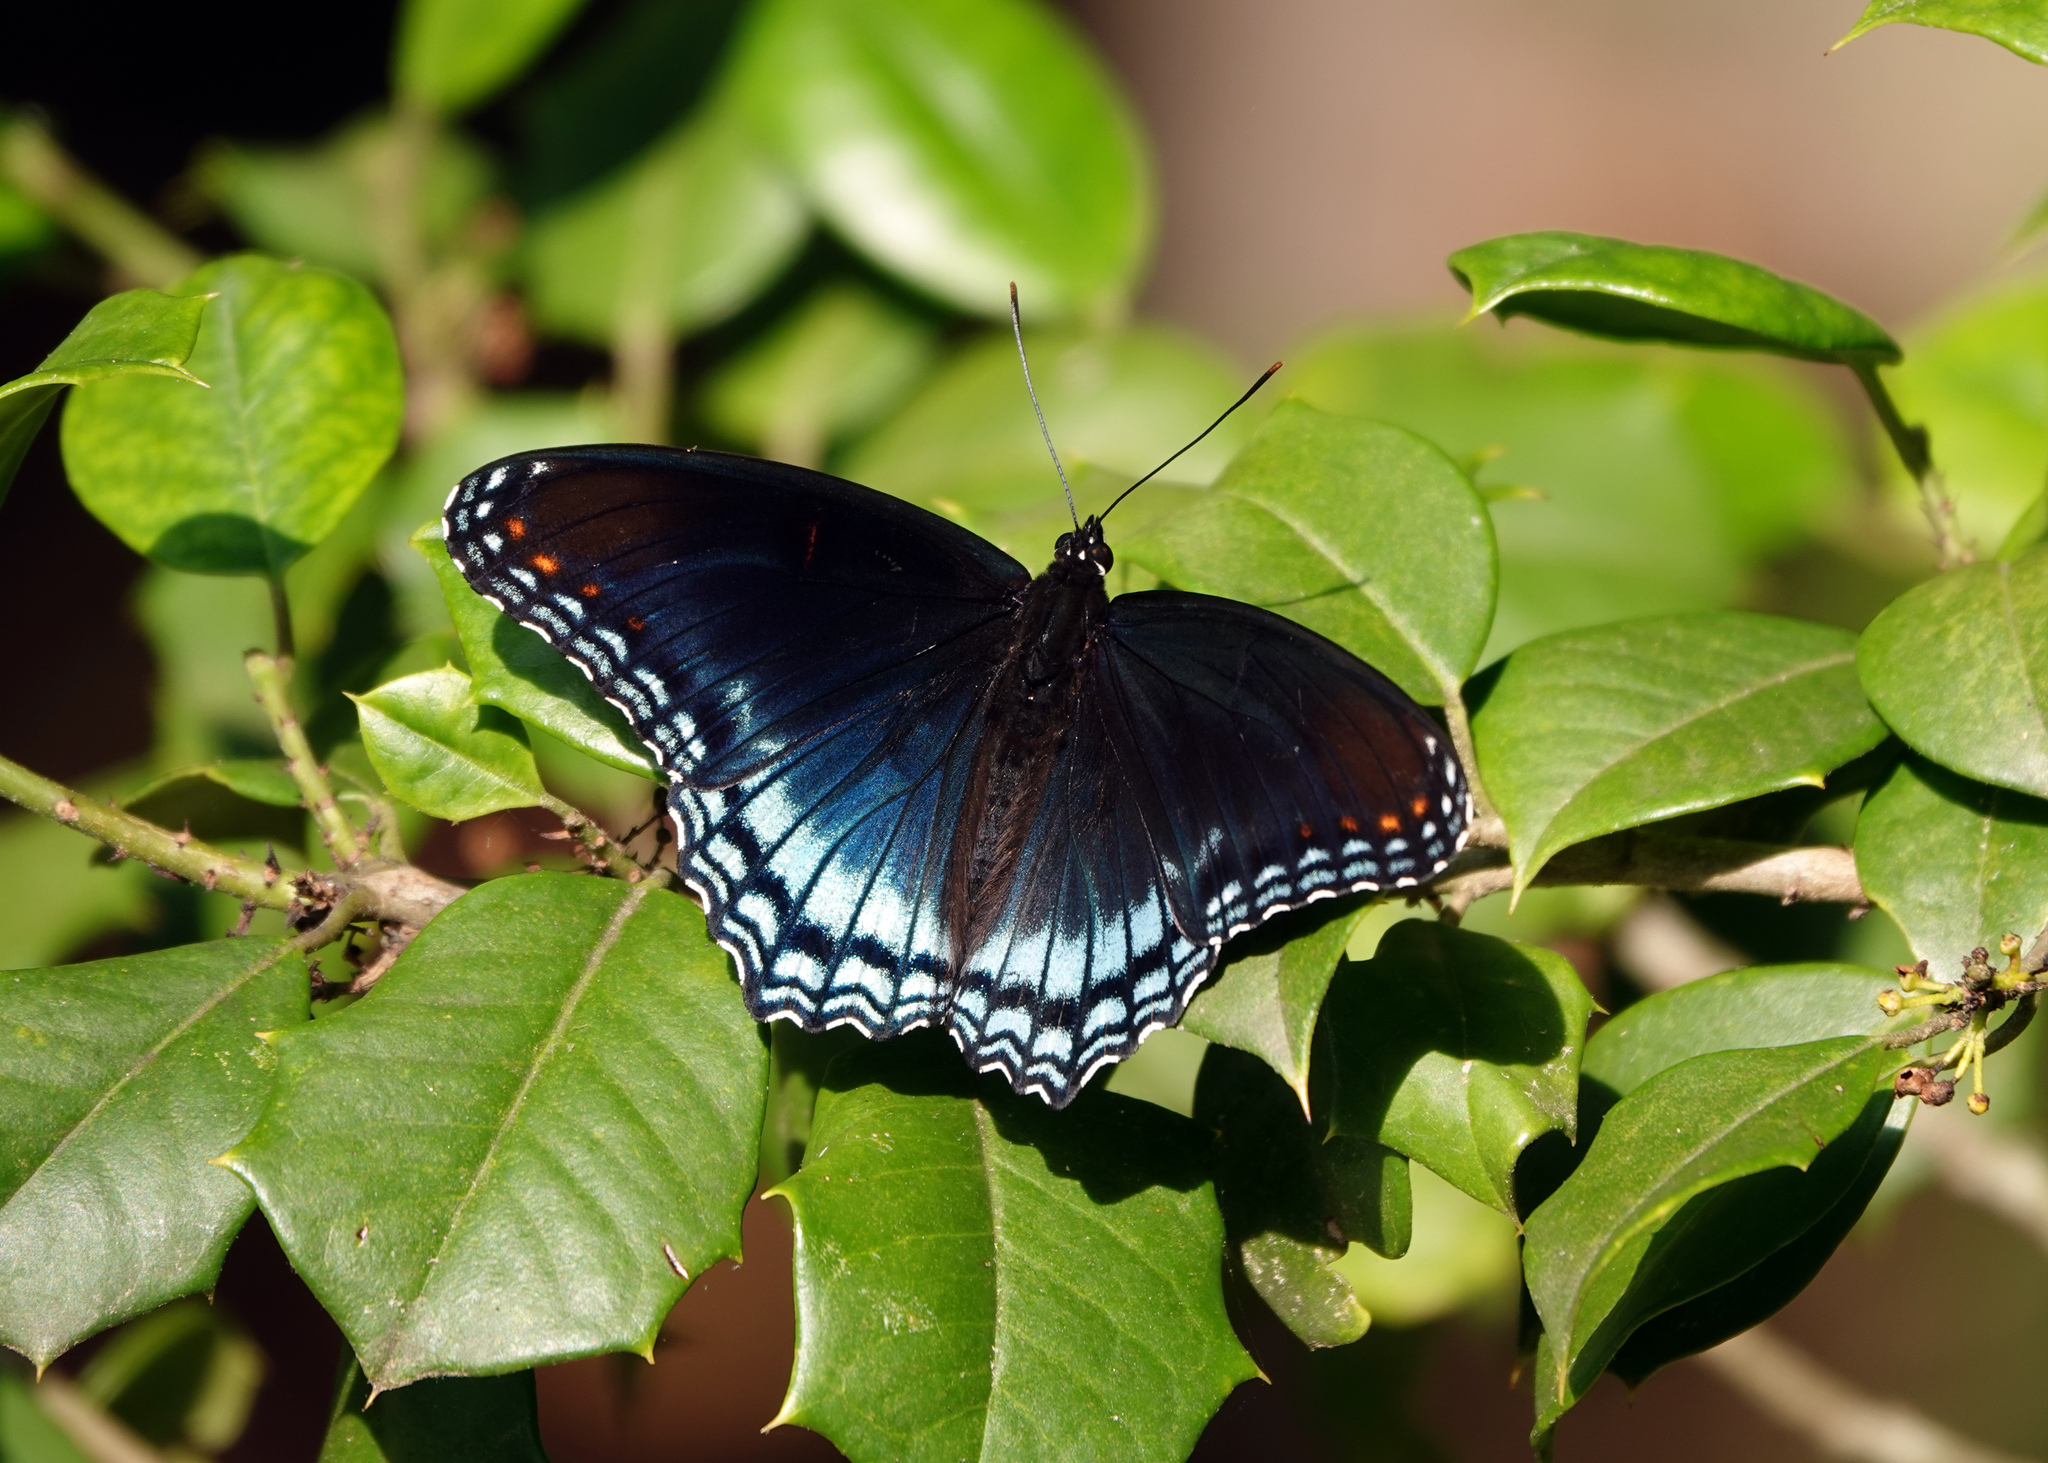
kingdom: Animalia
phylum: Arthropoda
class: Insecta
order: Lepidoptera
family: Nymphalidae
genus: Limenitis
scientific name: Limenitis astyanax
